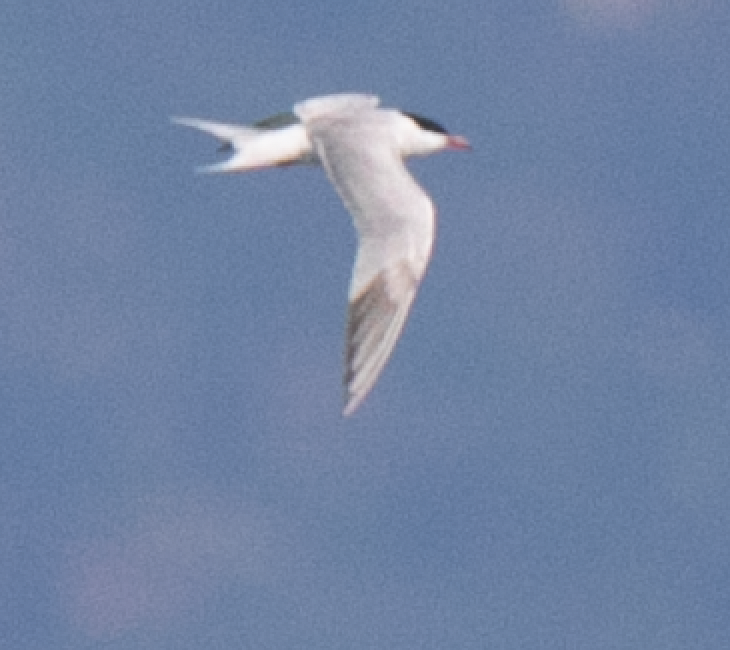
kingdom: Animalia
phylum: Chordata
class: Aves
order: Charadriiformes
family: Laridae
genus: Sterna
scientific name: Sterna hirundo
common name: Common tern
